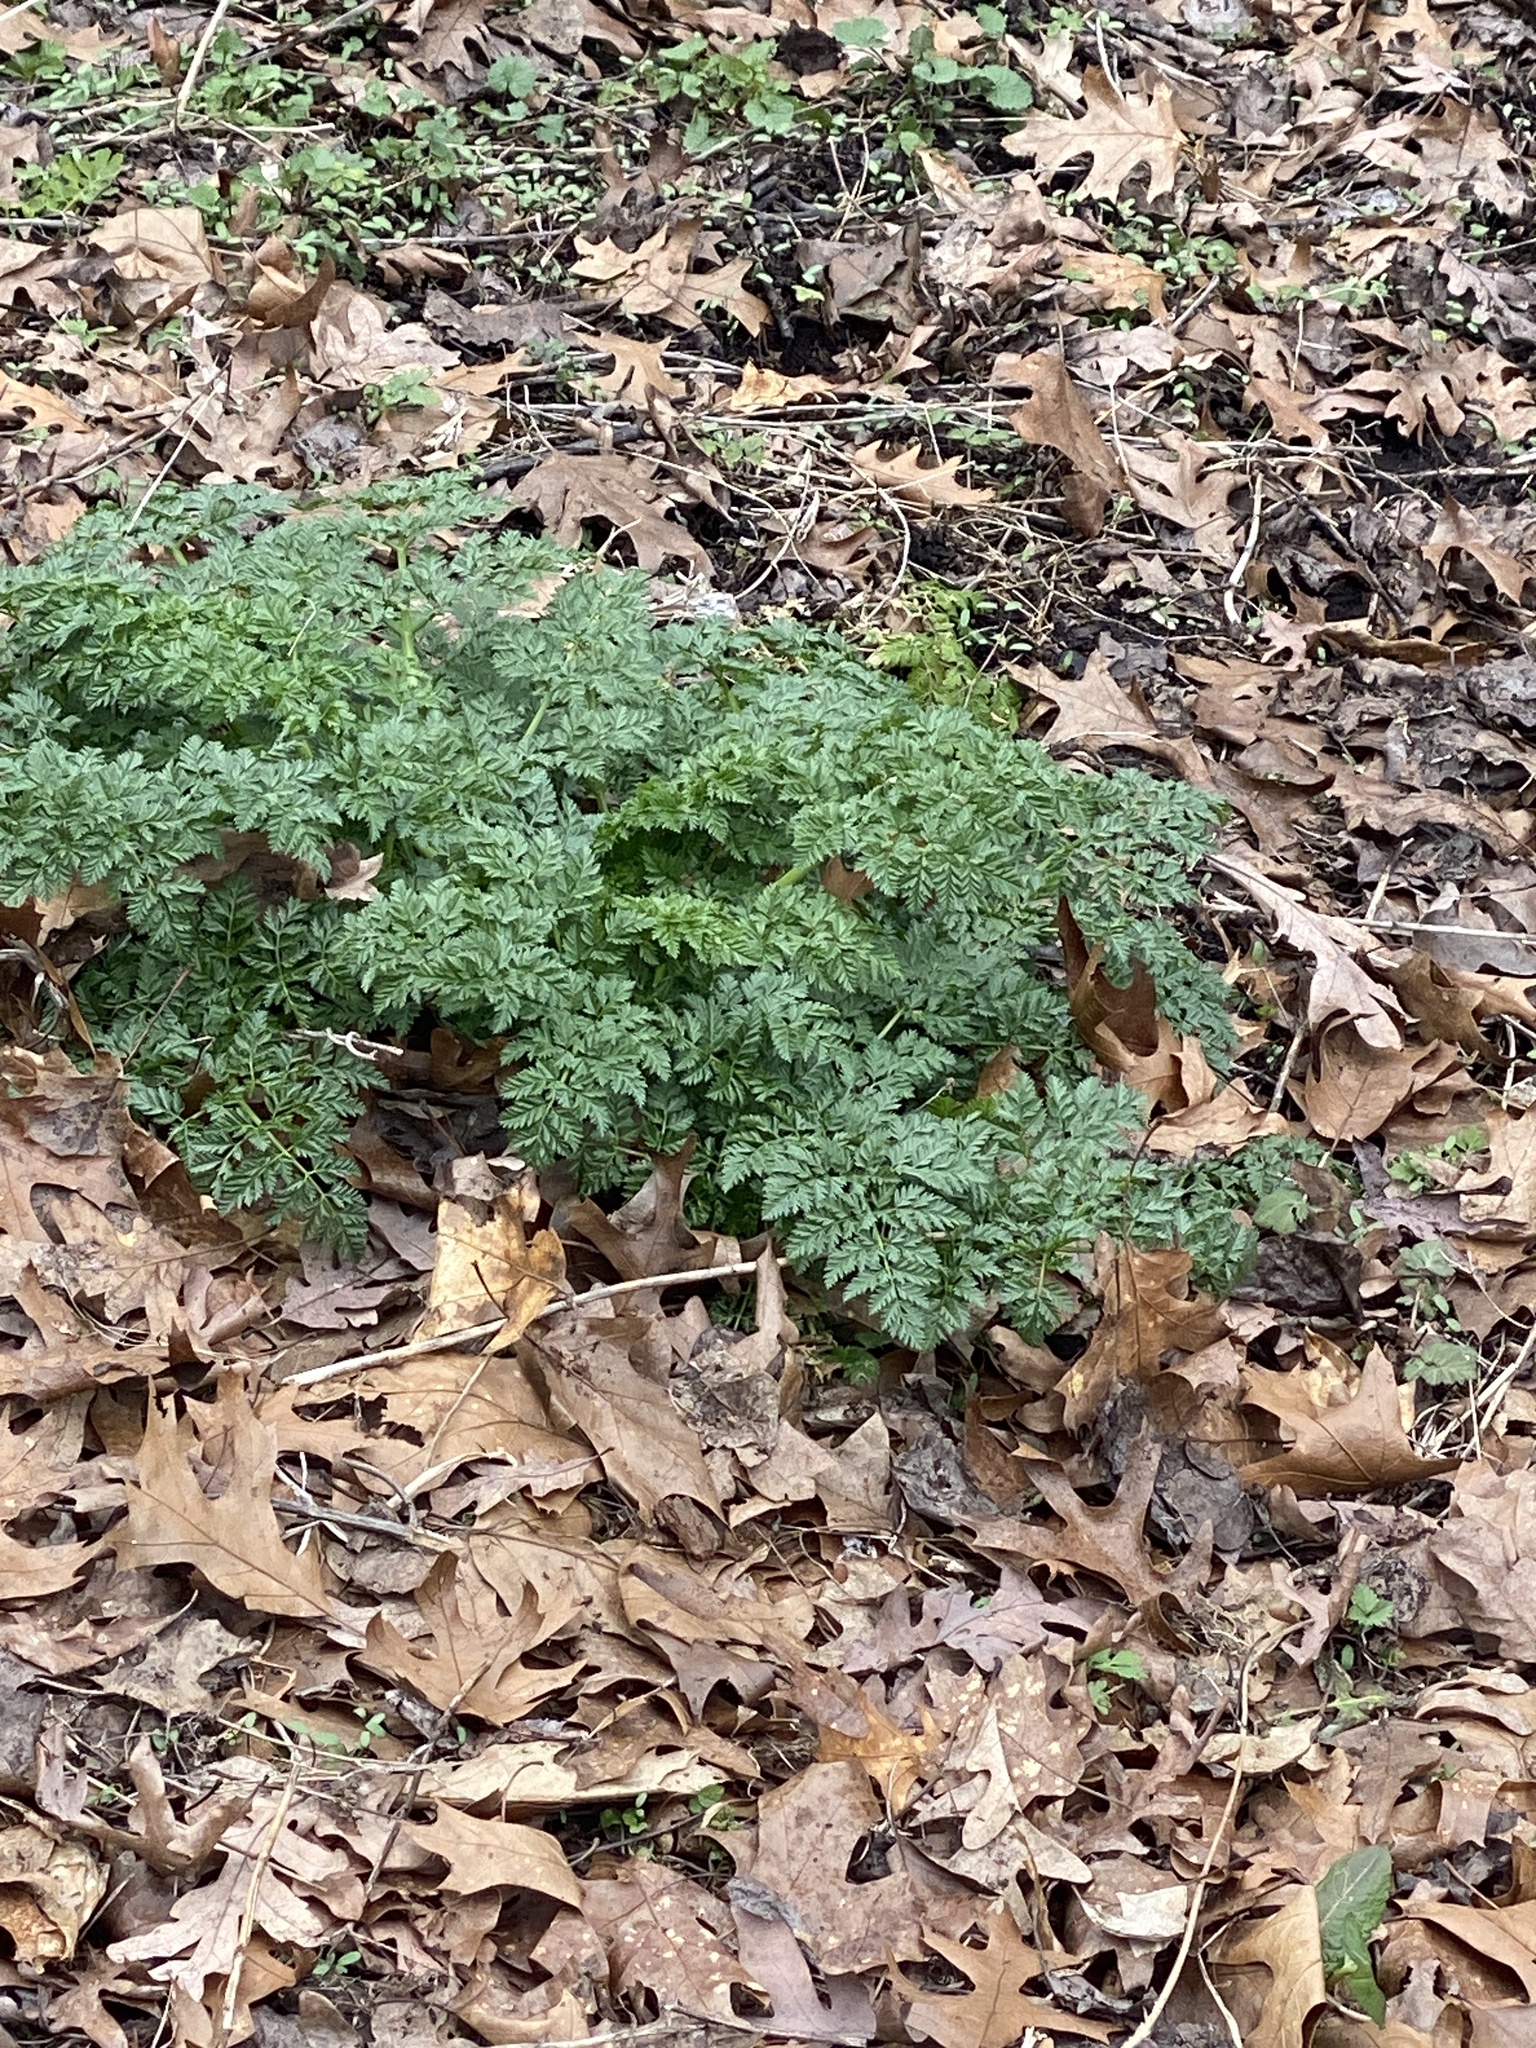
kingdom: Plantae
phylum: Tracheophyta
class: Magnoliopsida
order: Apiales
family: Apiaceae
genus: Conium
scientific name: Conium maculatum
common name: Hemlock
